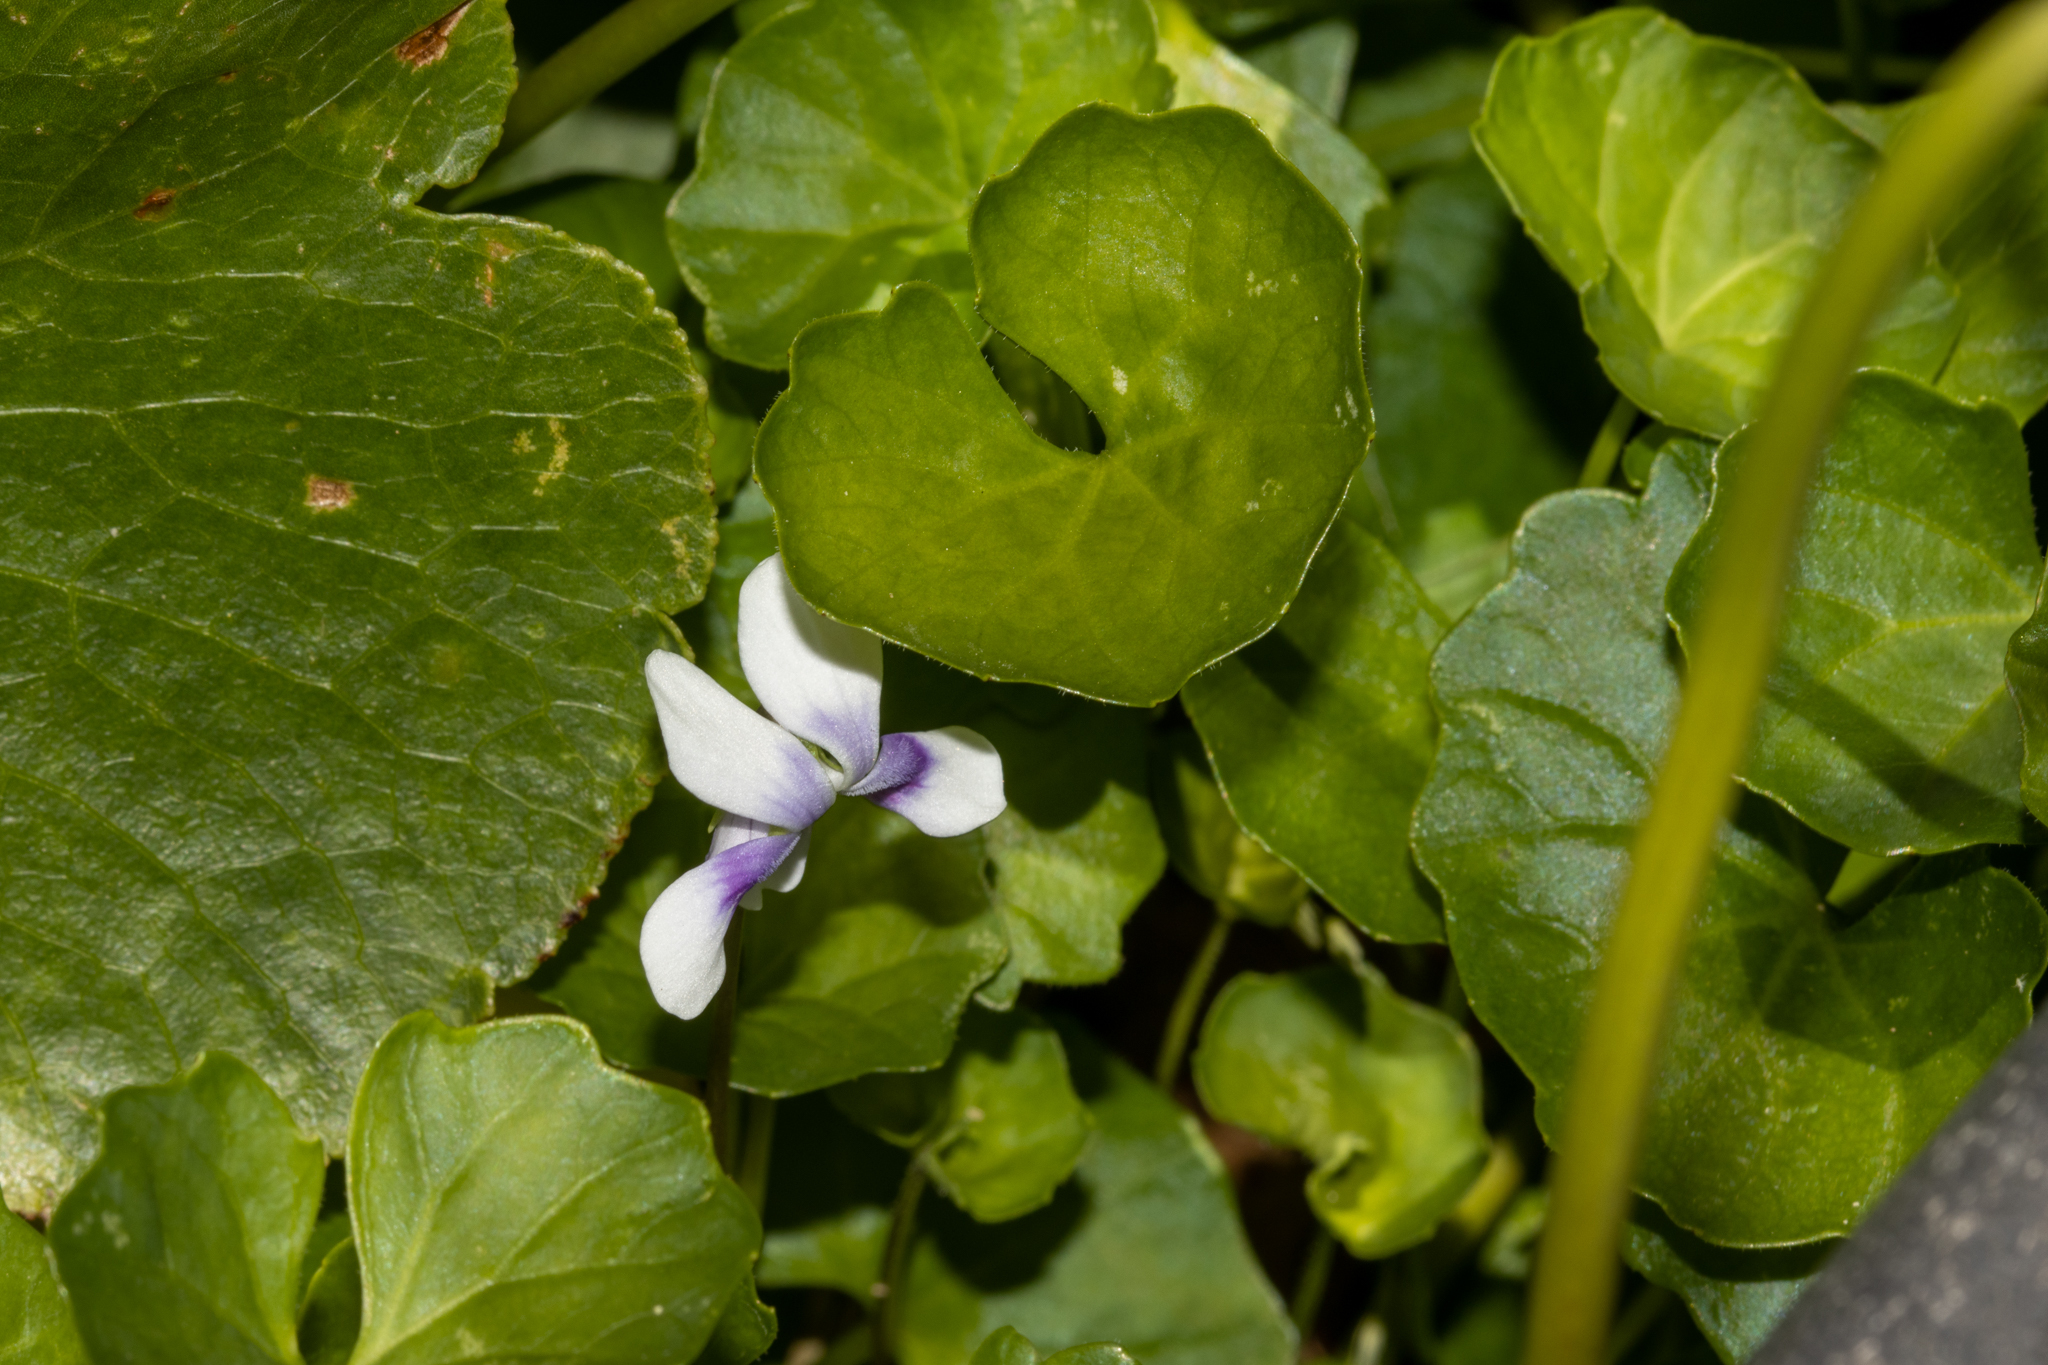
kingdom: Plantae
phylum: Tracheophyta
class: Magnoliopsida
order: Malpighiales
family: Violaceae
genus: Viola
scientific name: Viola banksii
